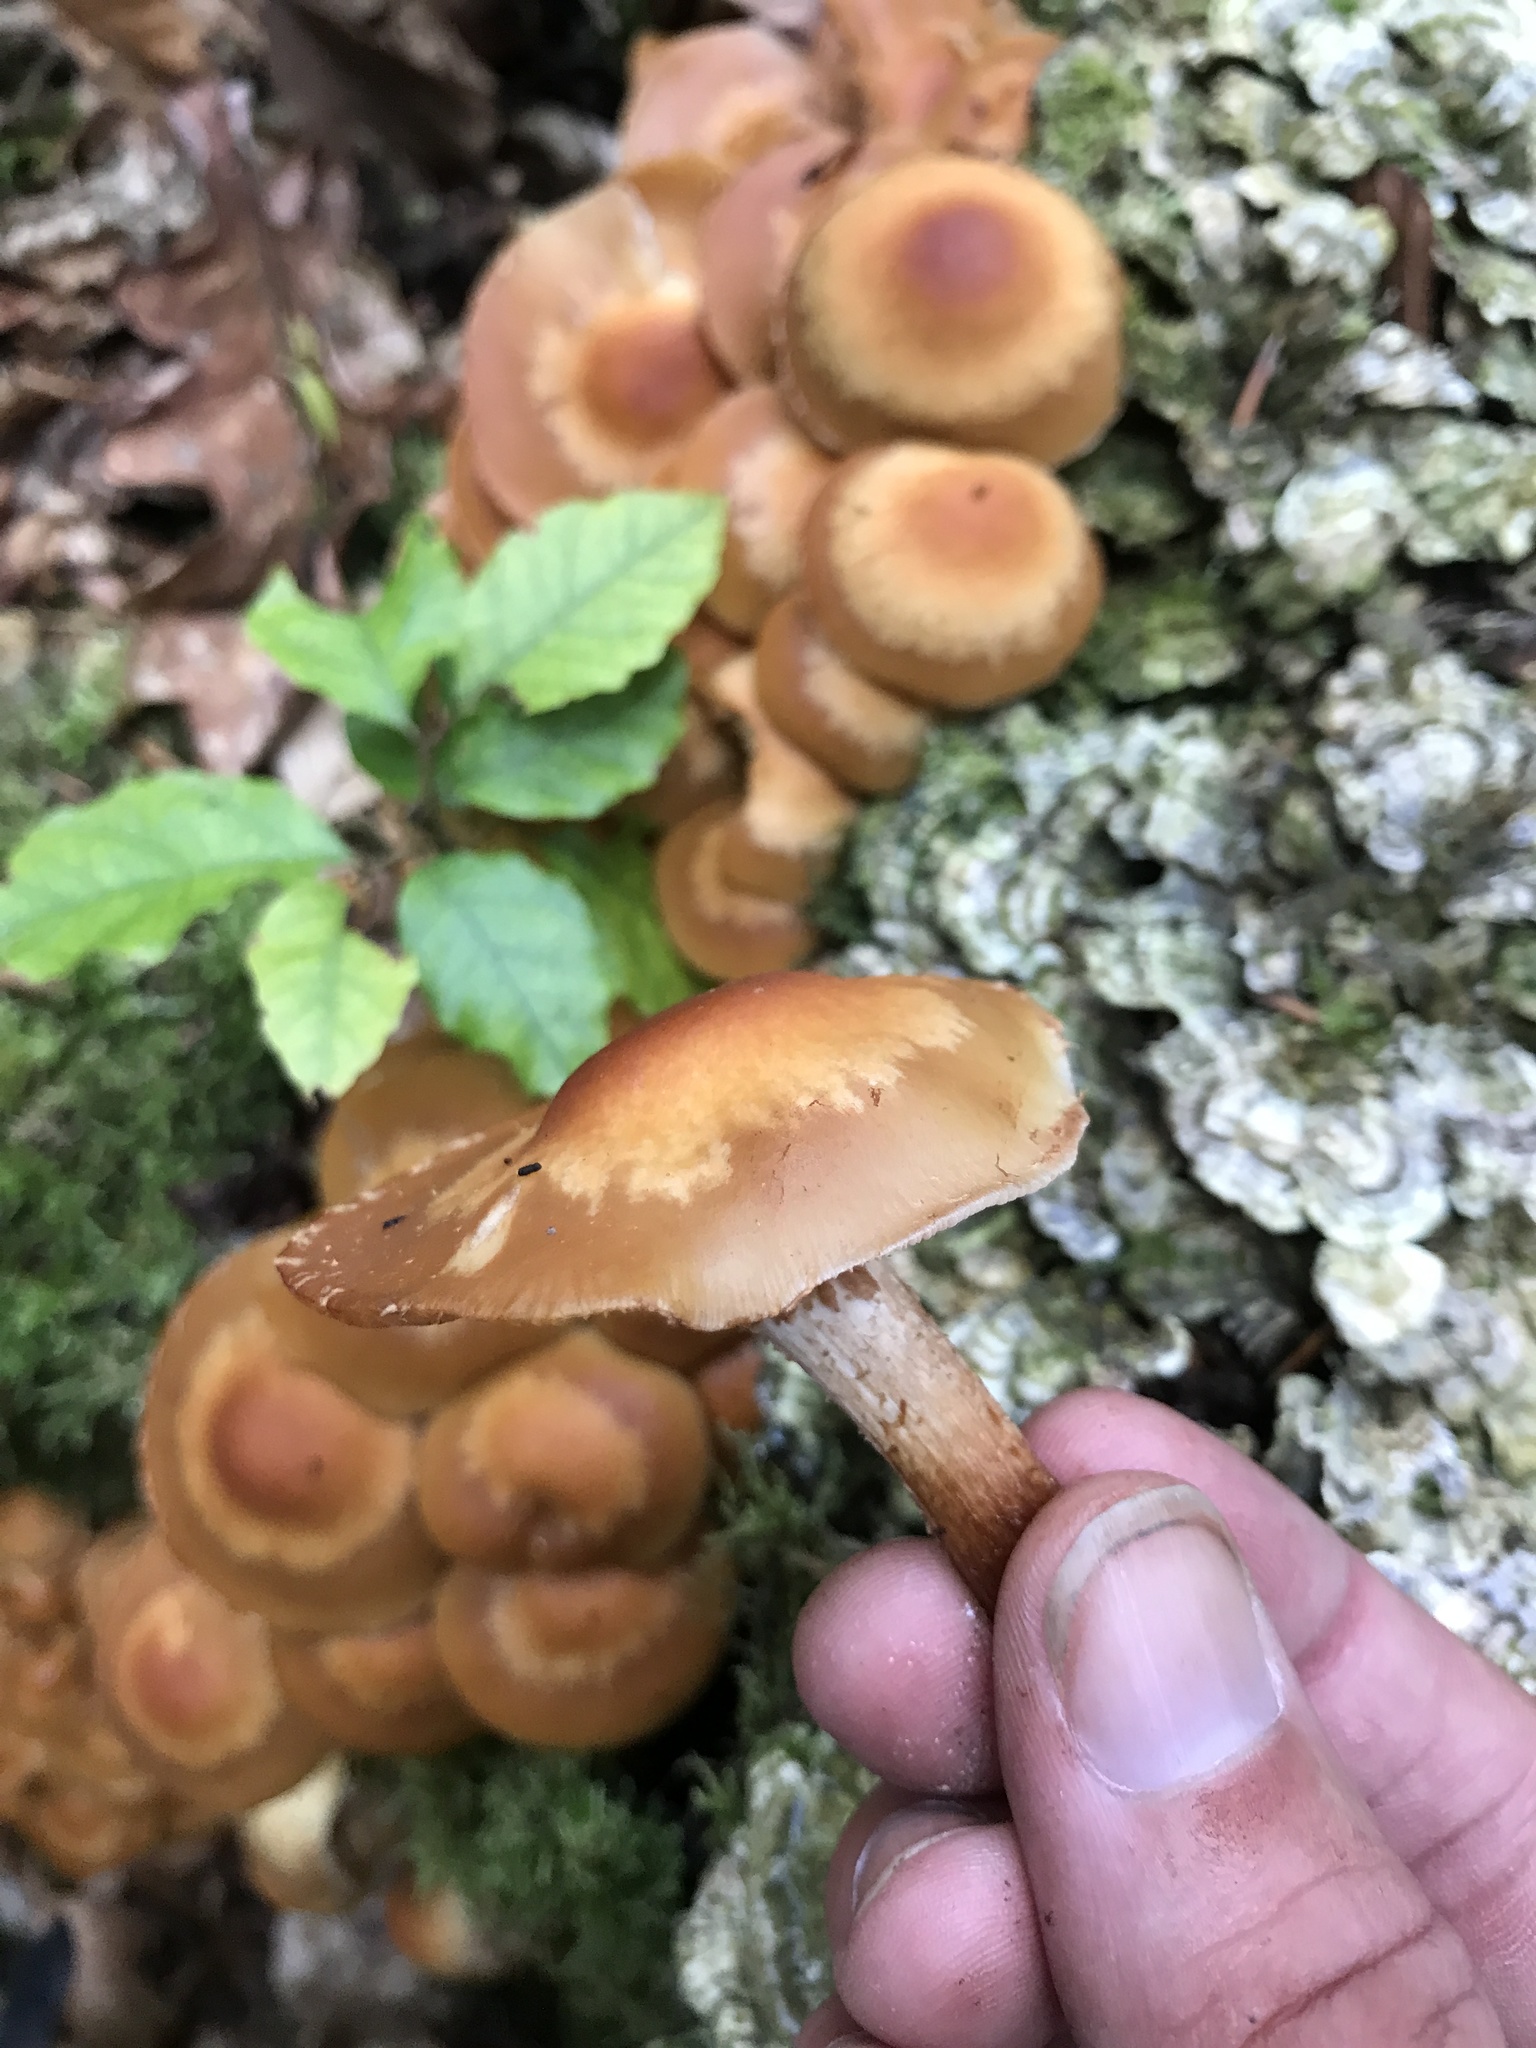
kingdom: Fungi
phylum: Basidiomycota
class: Agaricomycetes
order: Agaricales
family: Strophariaceae
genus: Kuehneromyces
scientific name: Kuehneromyces mutabilis
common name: Sheathed woodtuft
